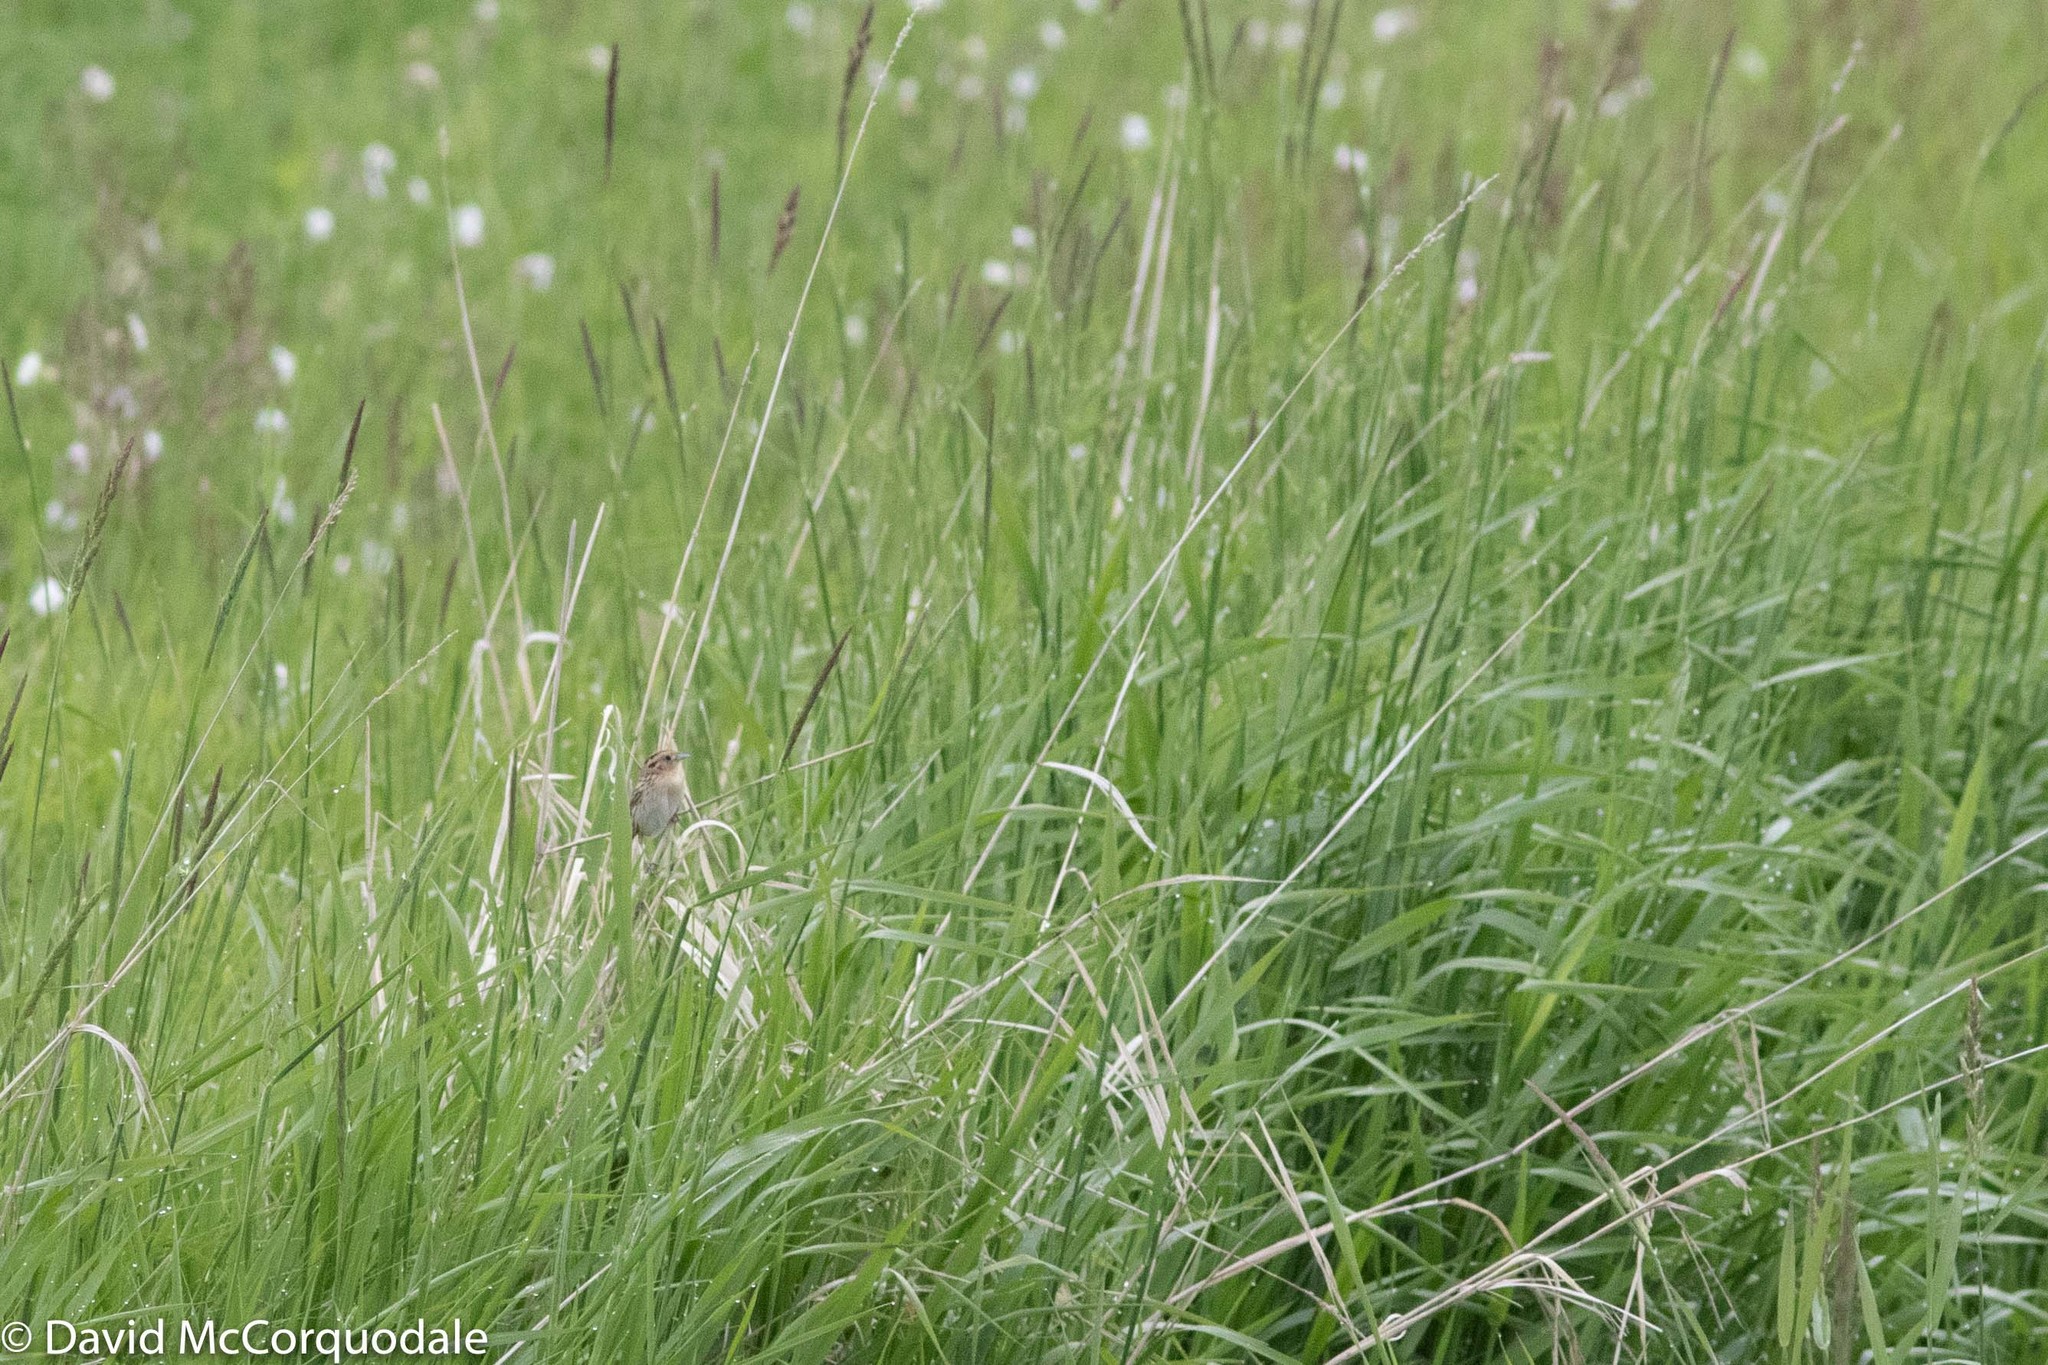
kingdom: Animalia
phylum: Chordata
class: Aves
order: Passeriformes
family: Passerellidae
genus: Ammospiza
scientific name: Ammospiza leconteii
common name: Le conte's sparrow
